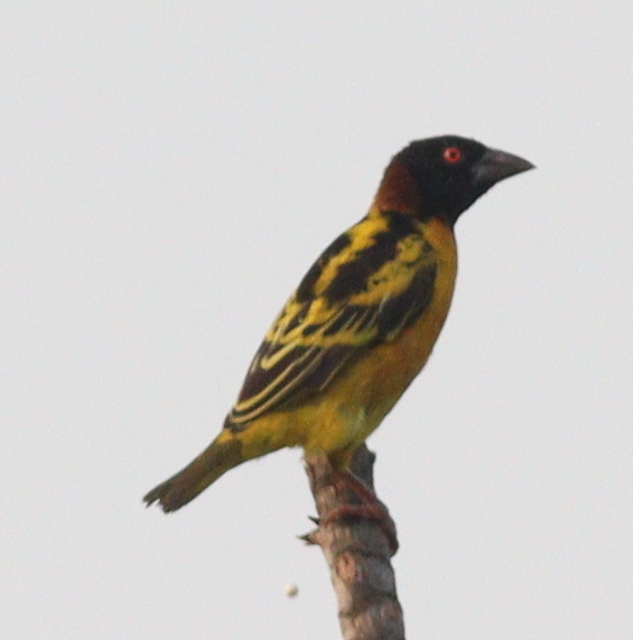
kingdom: Animalia
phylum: Chordata
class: Aves
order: Passeriformes
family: Ploceidae
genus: Ploceus
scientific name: Ploceus cucullatus
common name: Village weaver
